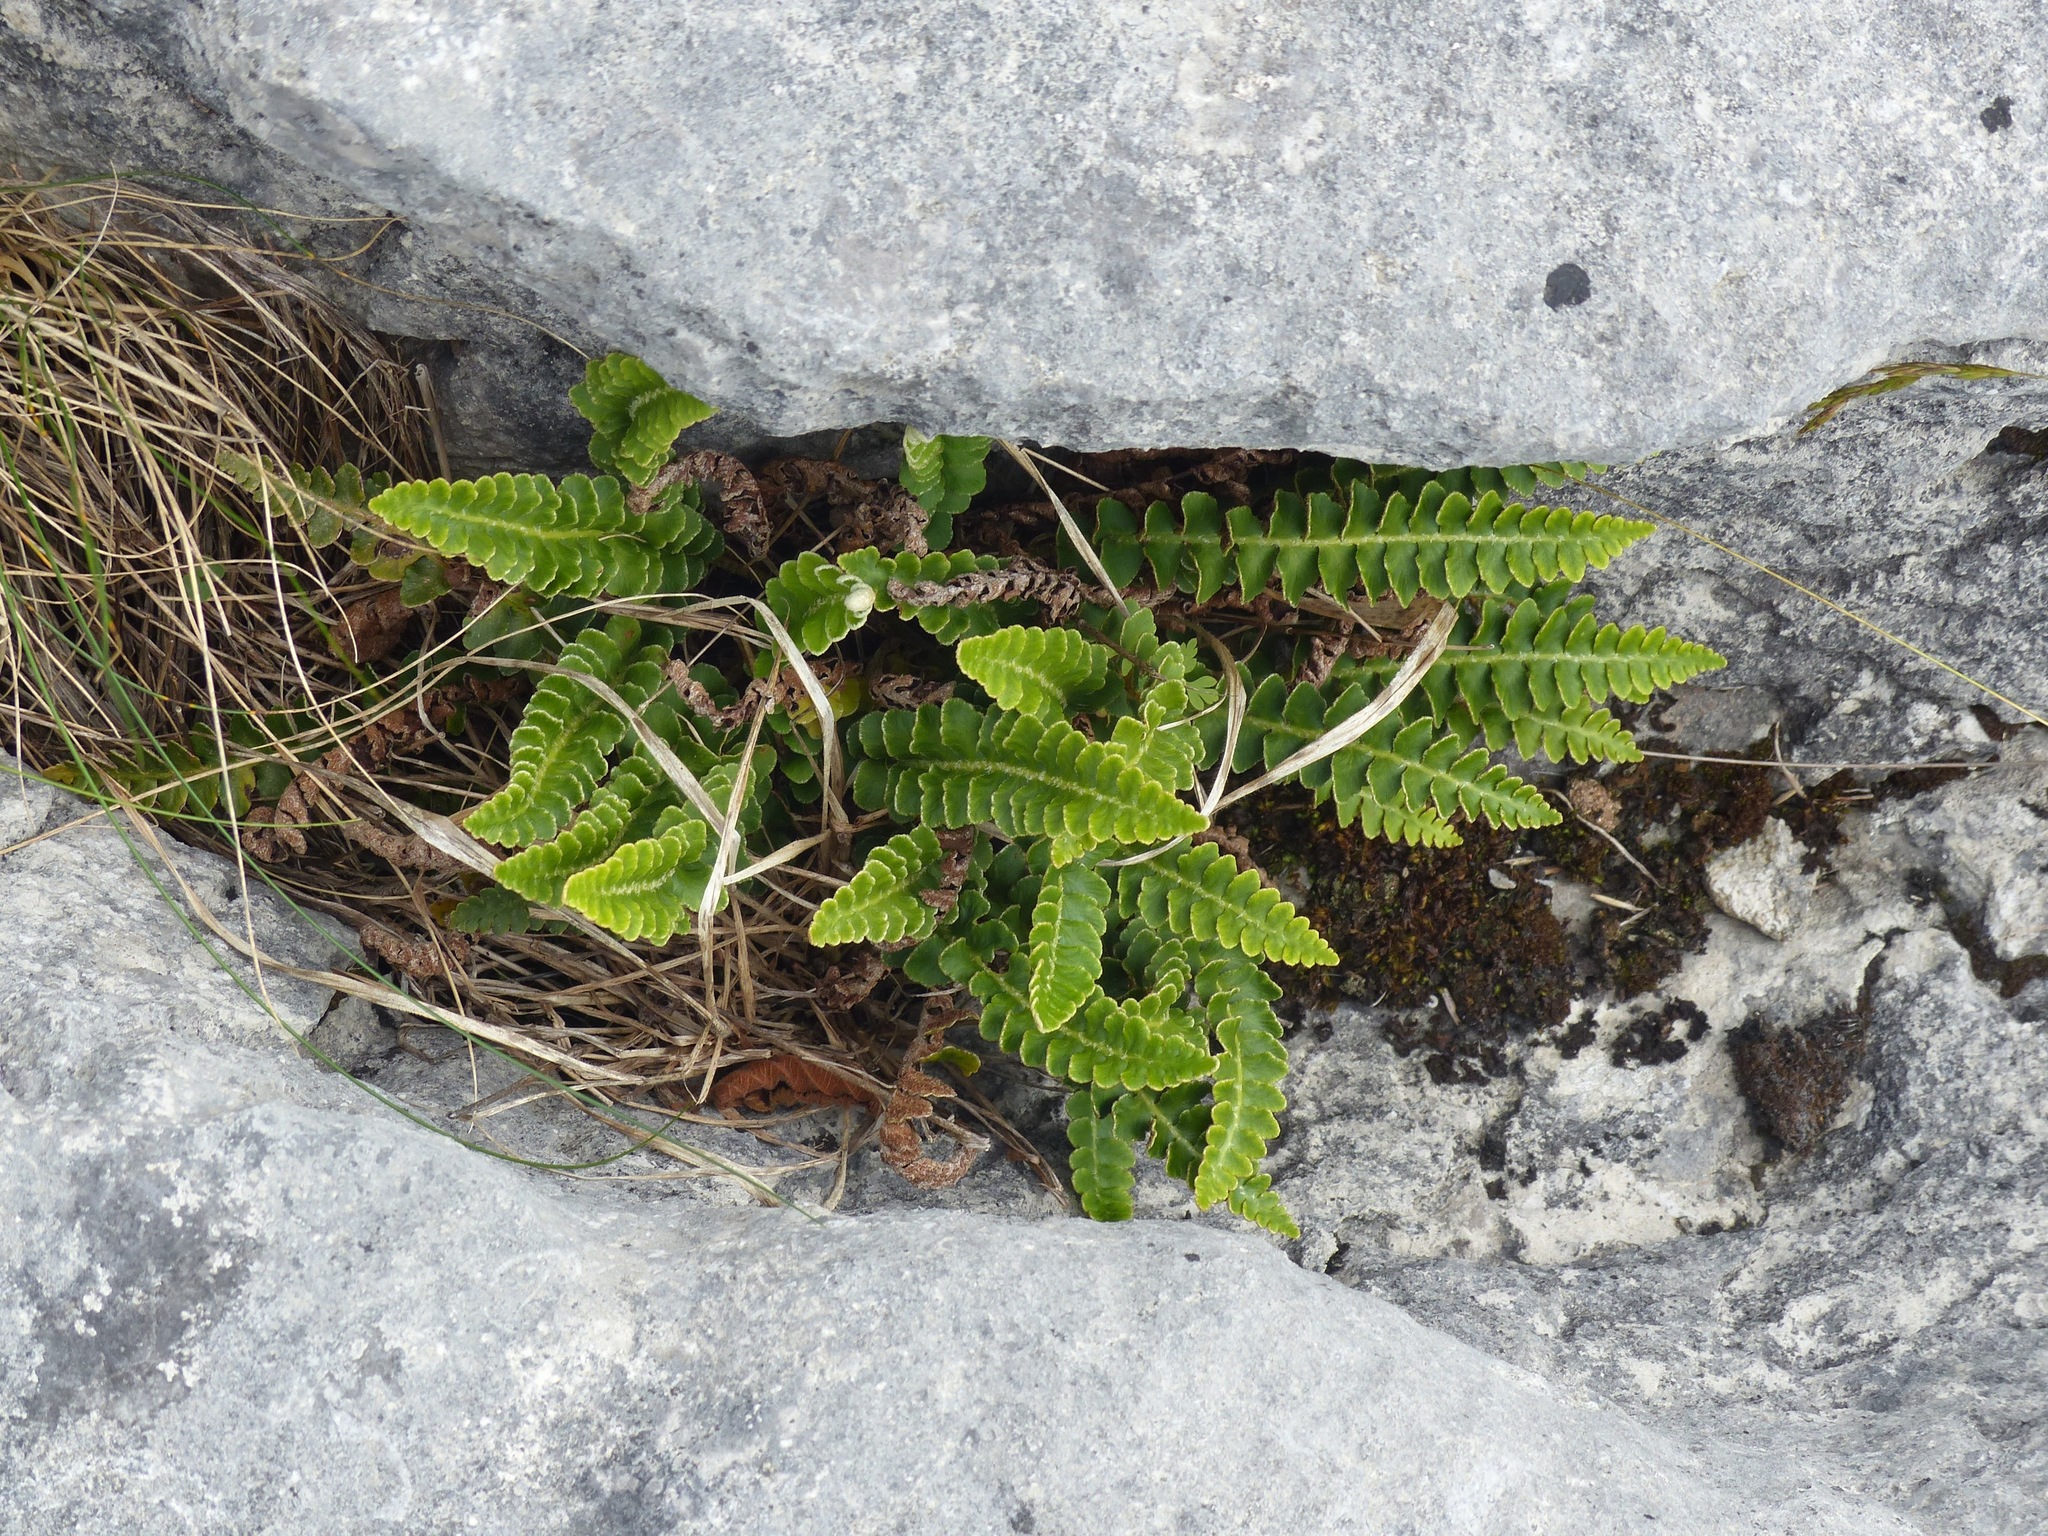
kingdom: Plantae
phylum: Tracheophyta
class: Polypodiopsida
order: Polypodiales
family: Aspleniaceae
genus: Asplenium
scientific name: Asplenium ceterach
